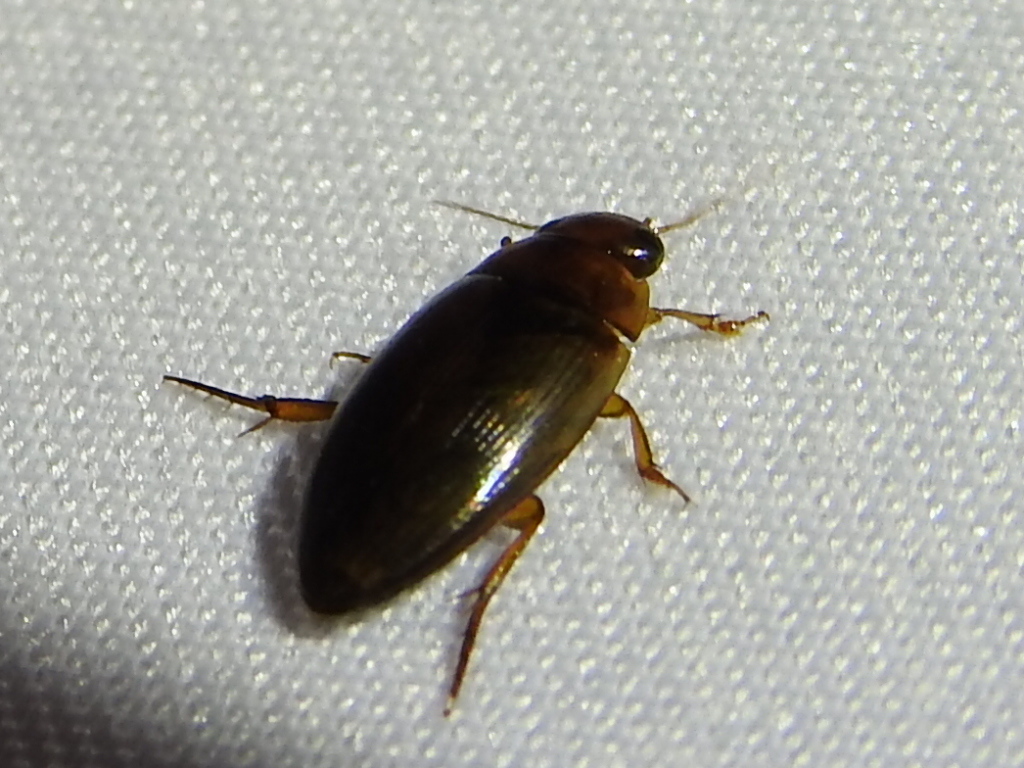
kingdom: Animalia
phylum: Arthropoda
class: Insecta
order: Coleoptera
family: Dytiscidae
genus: Copelatus
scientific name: Copelatus chevrolati
